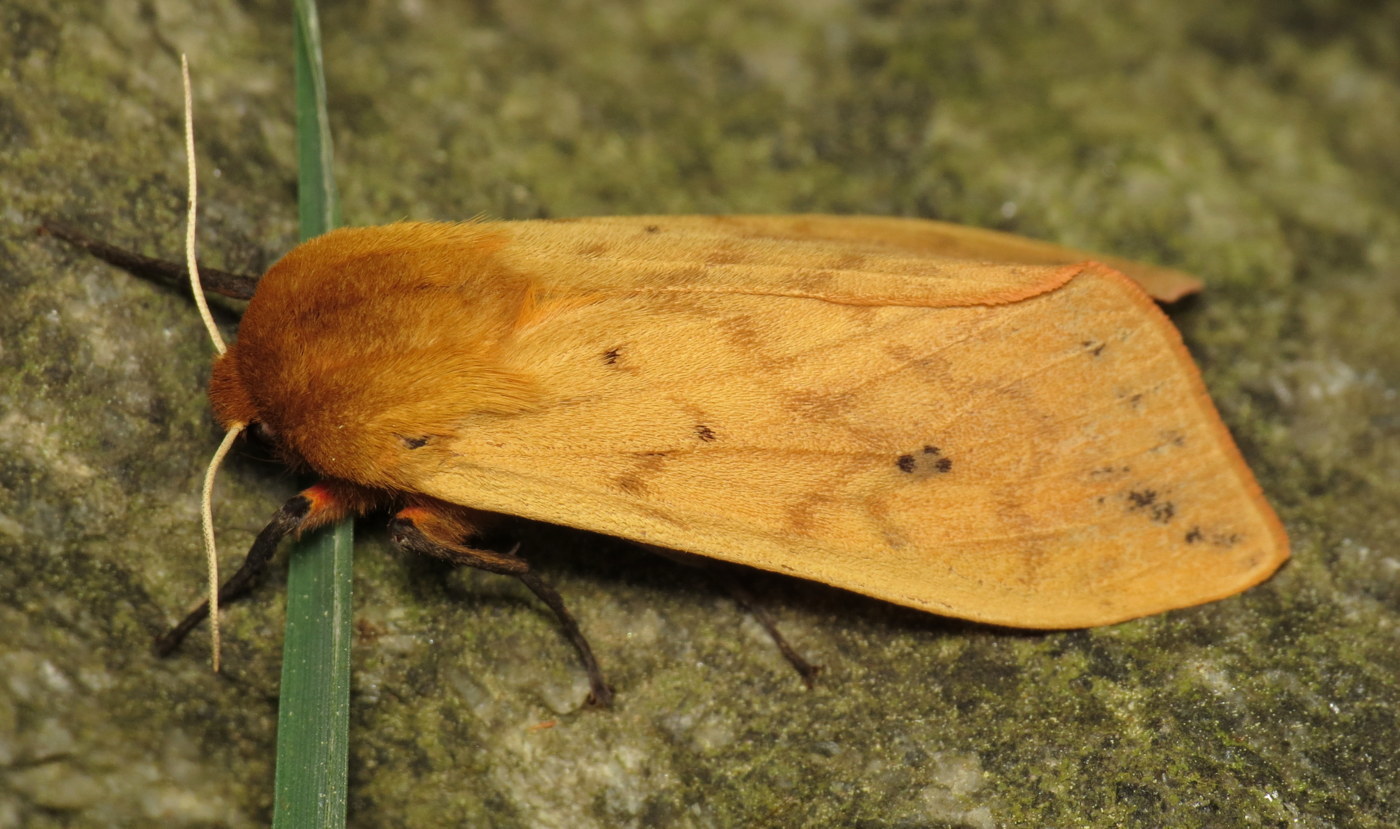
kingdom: Animalia
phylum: Arthropoda
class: Insecta
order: Lepidoptera
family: Erebidae
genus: Pyrrharctia
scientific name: Pyrrharctia isabella
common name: Isabella tiger moth
